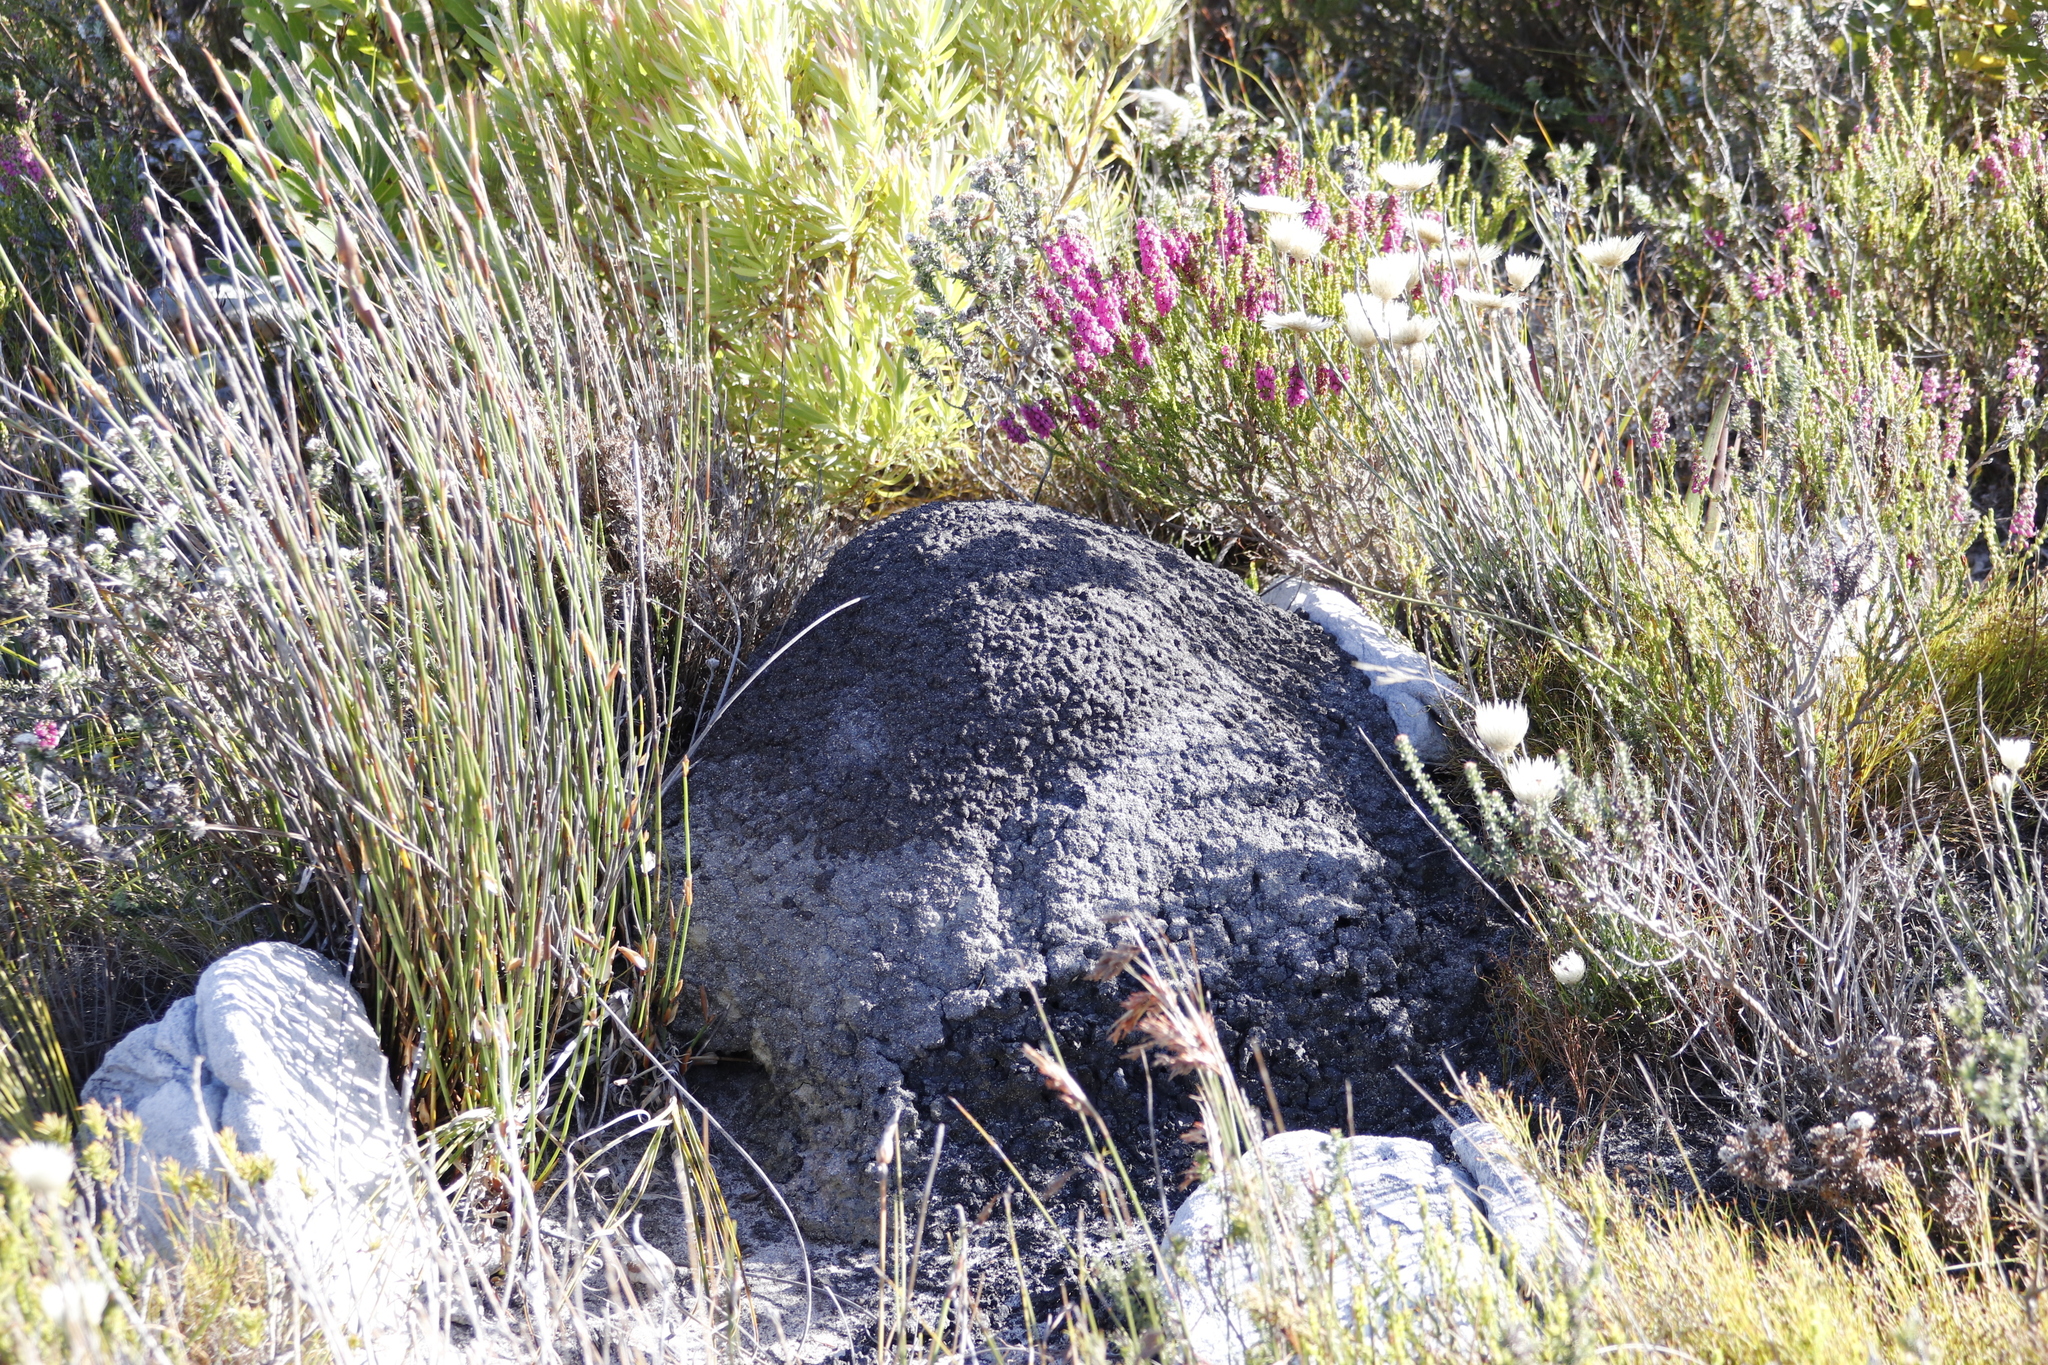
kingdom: Plantae
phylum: Tracheophyta
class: Magnoliopsida
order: Ericales
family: Ericaceae
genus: Erica
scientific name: Erica pulchella
